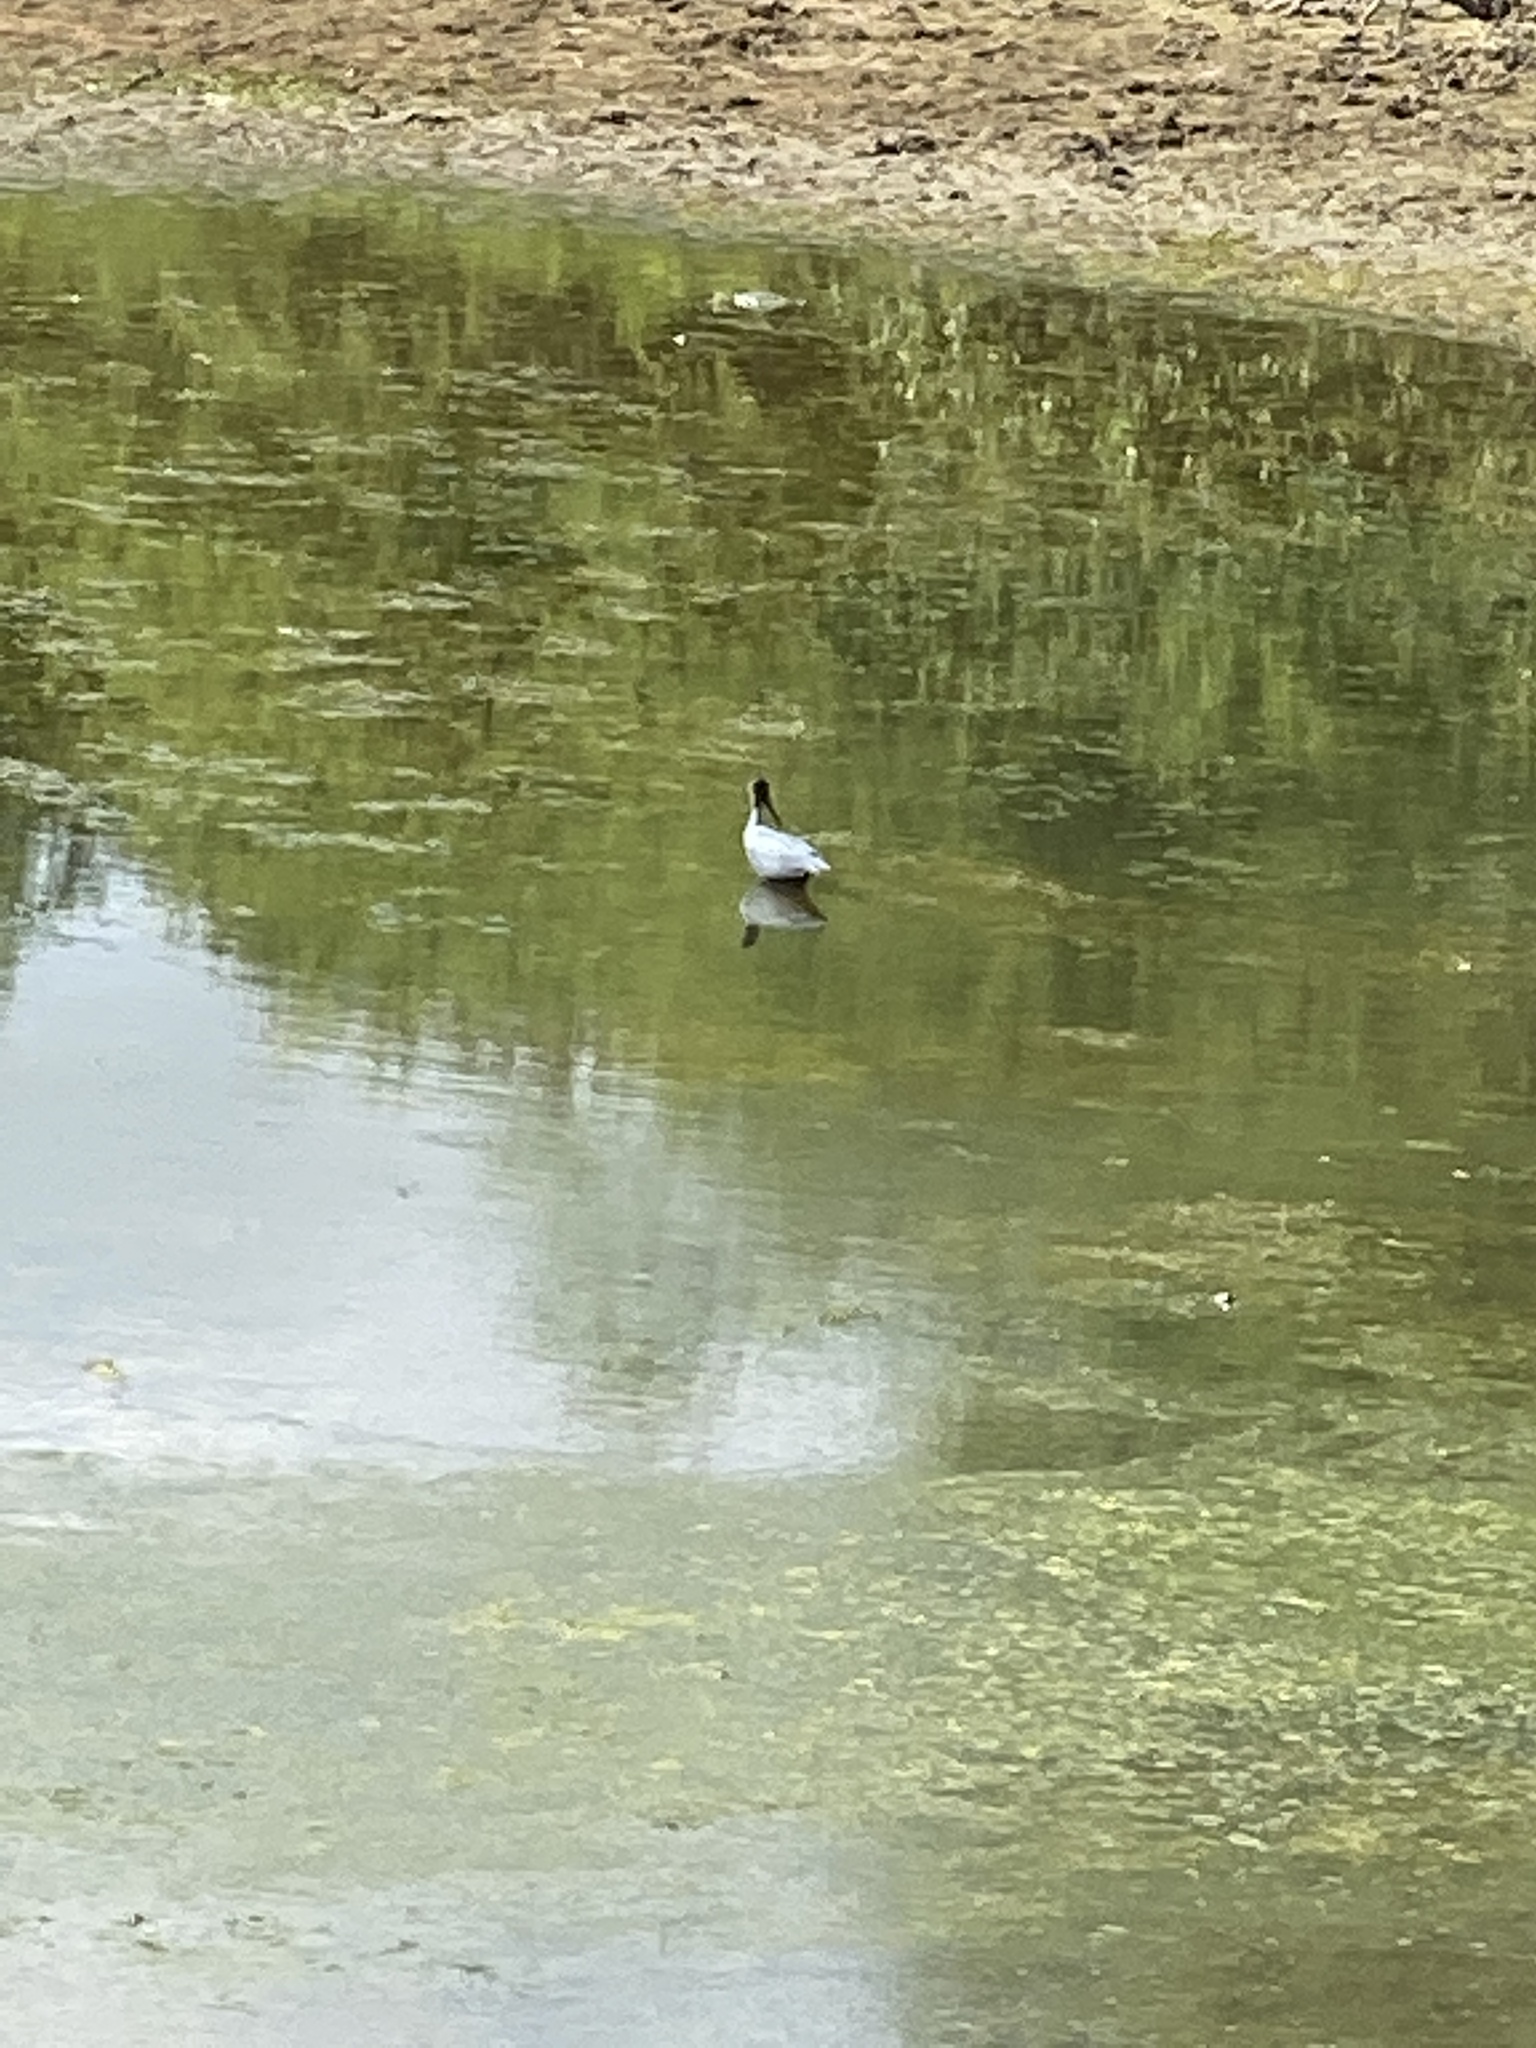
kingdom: Animalia
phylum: Chordata
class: Aves
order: Ciconiiformes
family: Ciconiidae
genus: Mycteria
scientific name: Mycteria americana
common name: Wood stork
